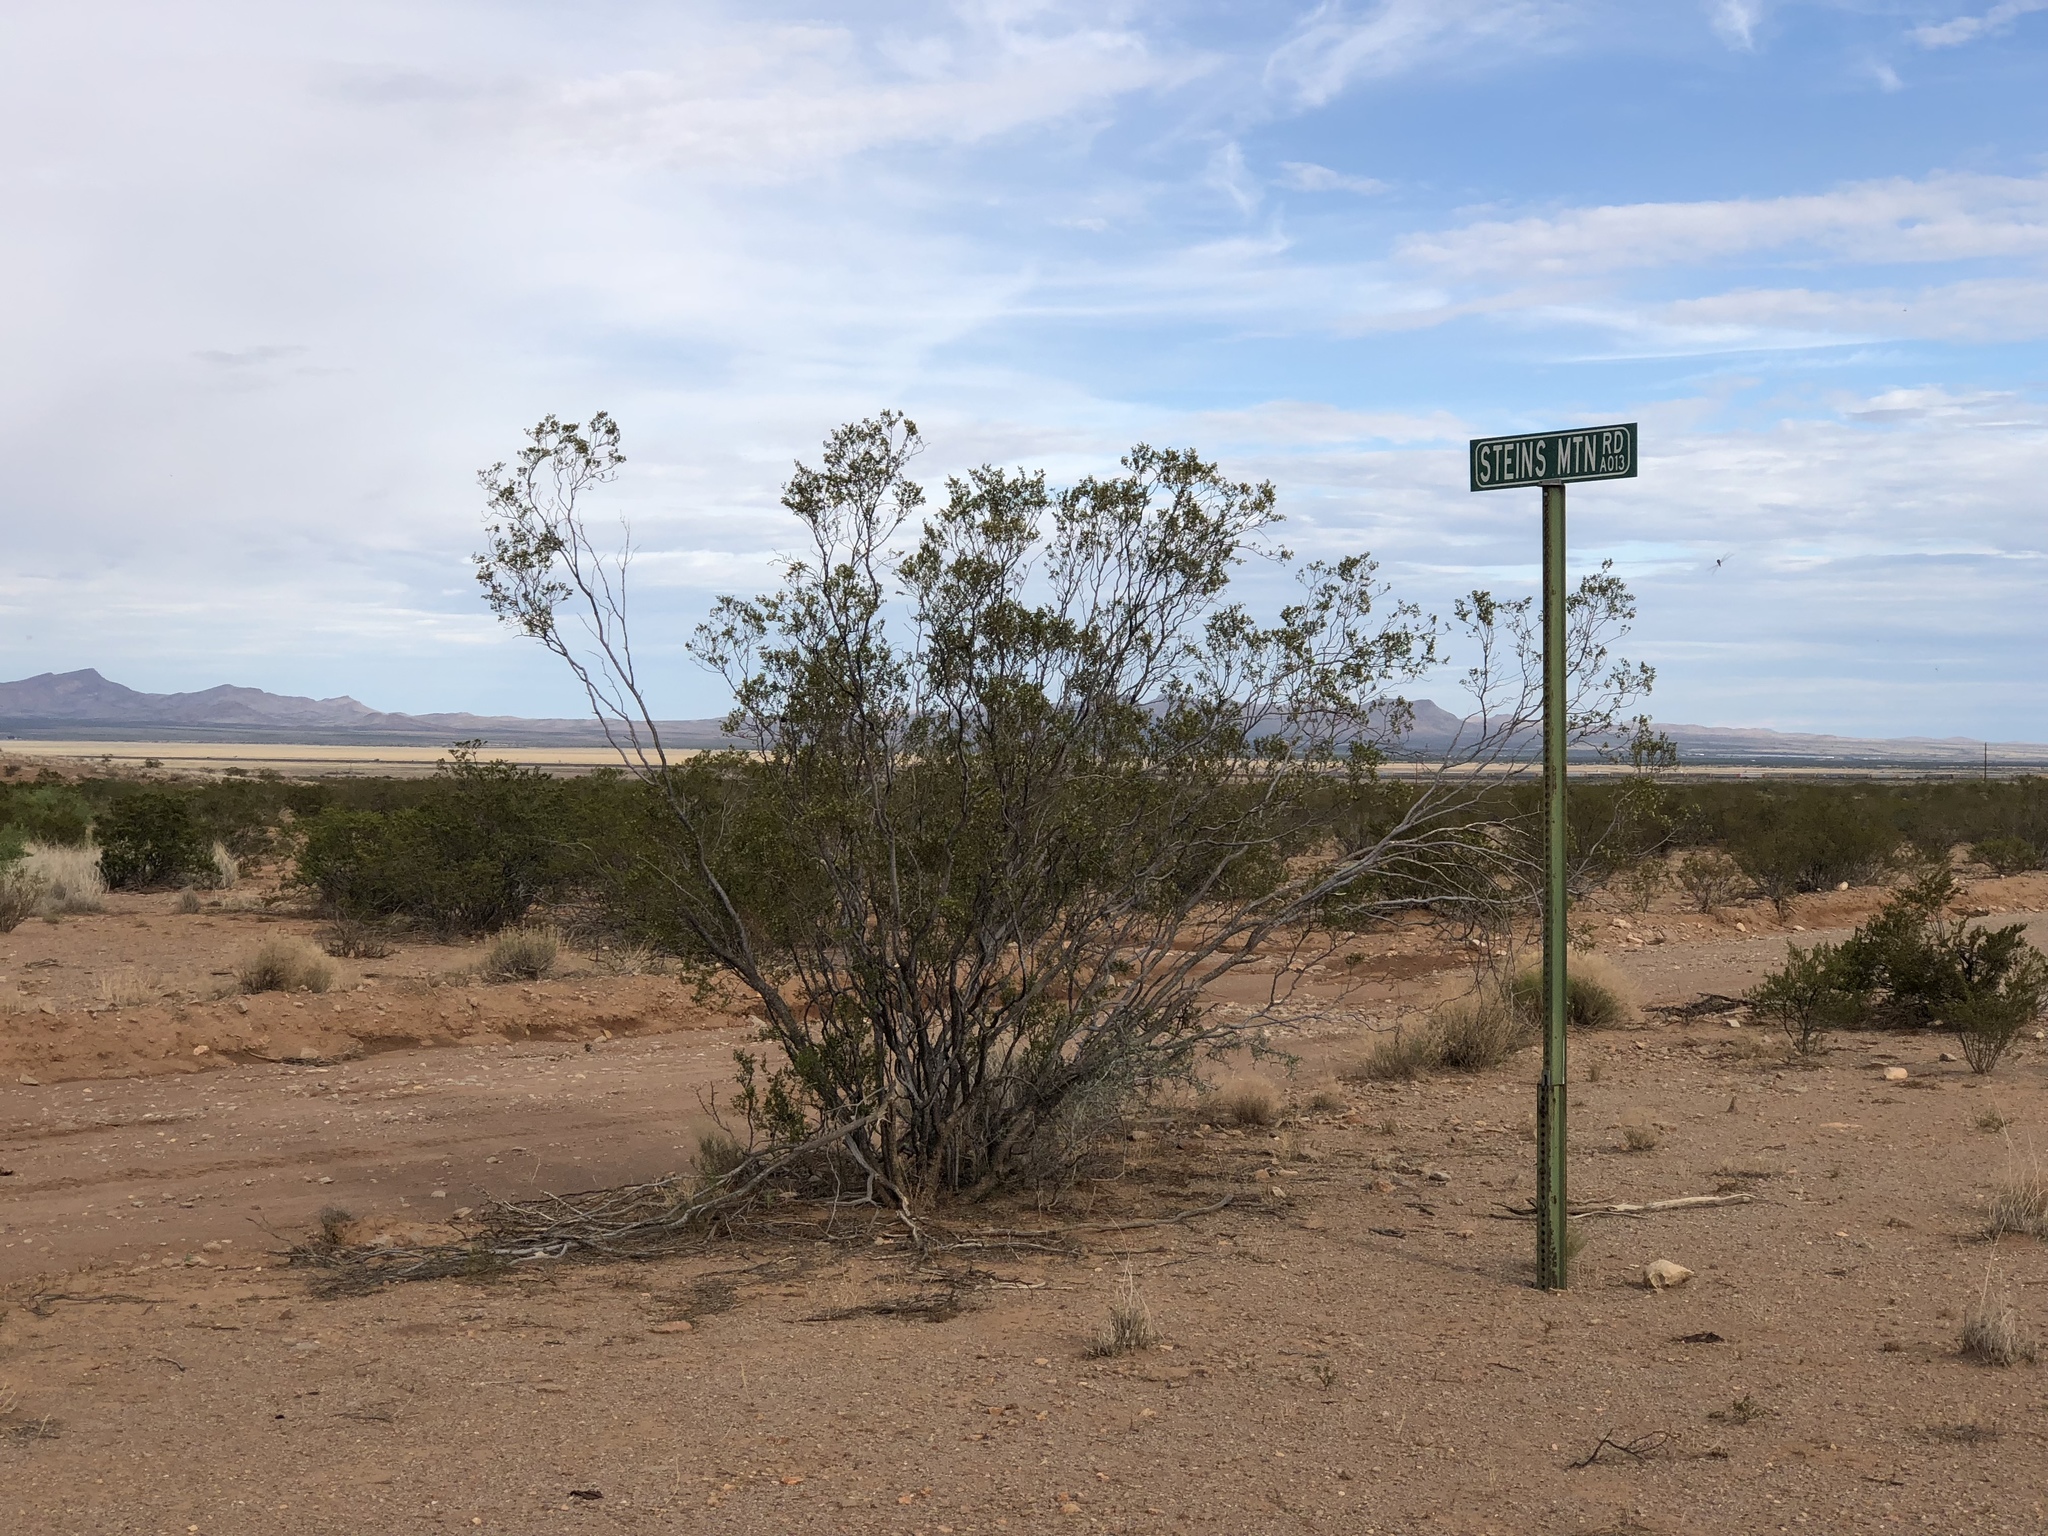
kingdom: Plantae
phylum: Tracheophyta
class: Magnoliopsida
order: Zygophyllales
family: Zygophyllaceae
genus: Larrea
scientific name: Larrea tridentata
